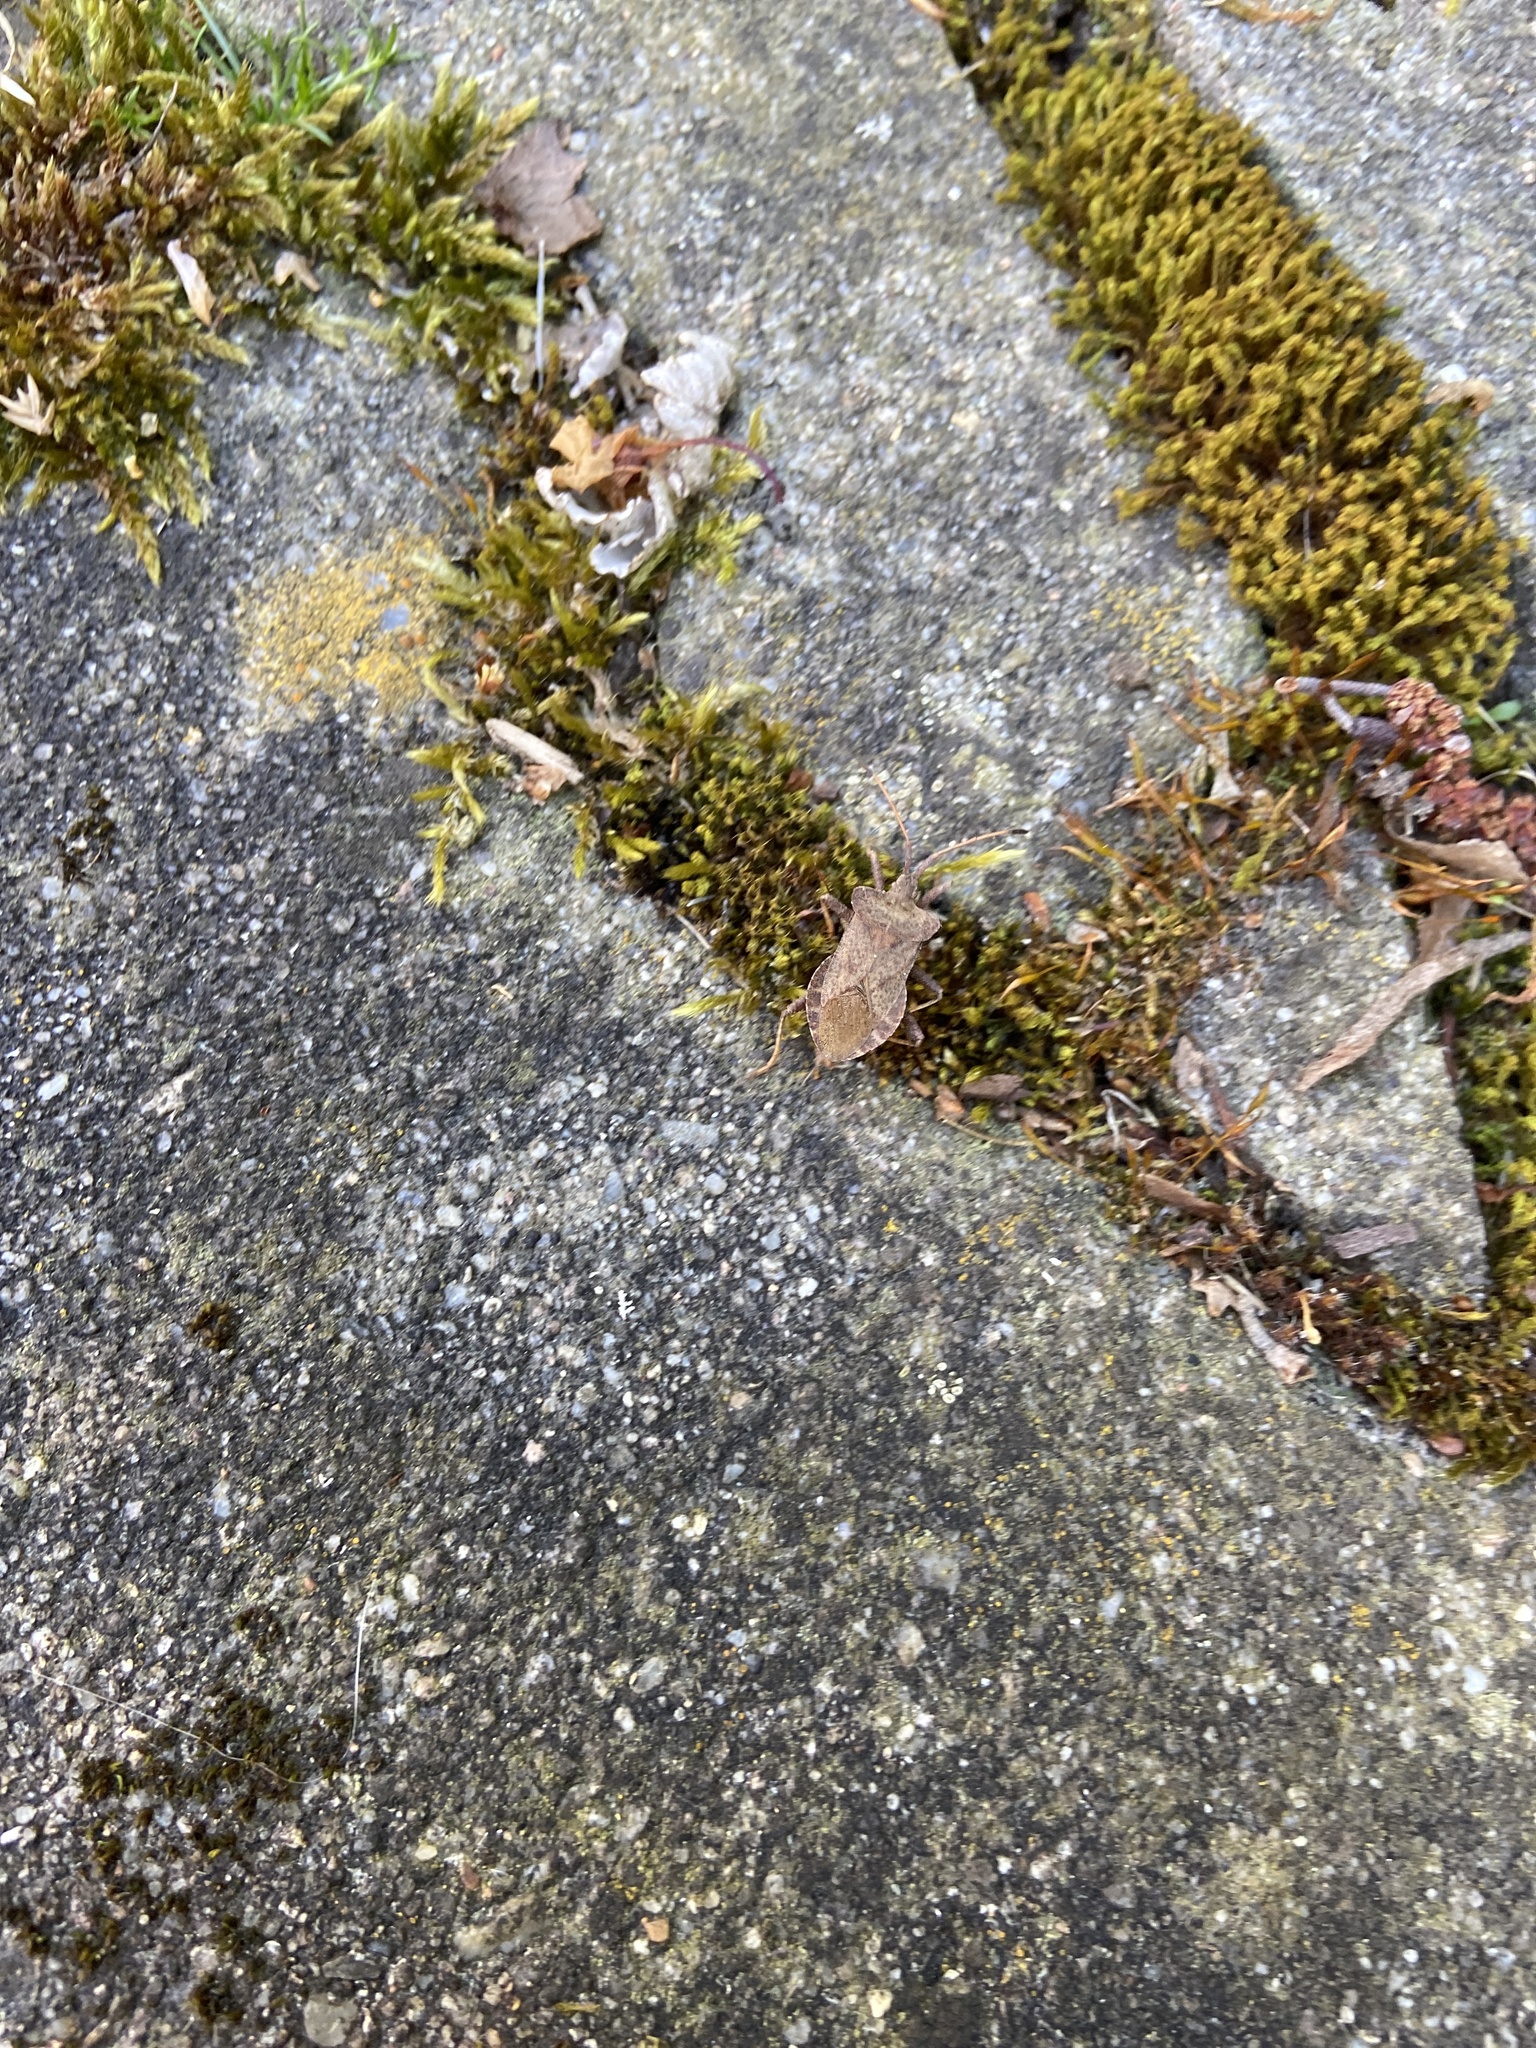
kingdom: Animalia
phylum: Arthropoda
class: Insecta
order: Hemiptera
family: Coreidae
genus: Coreus
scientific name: Coreus marginatus
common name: Dock bug
